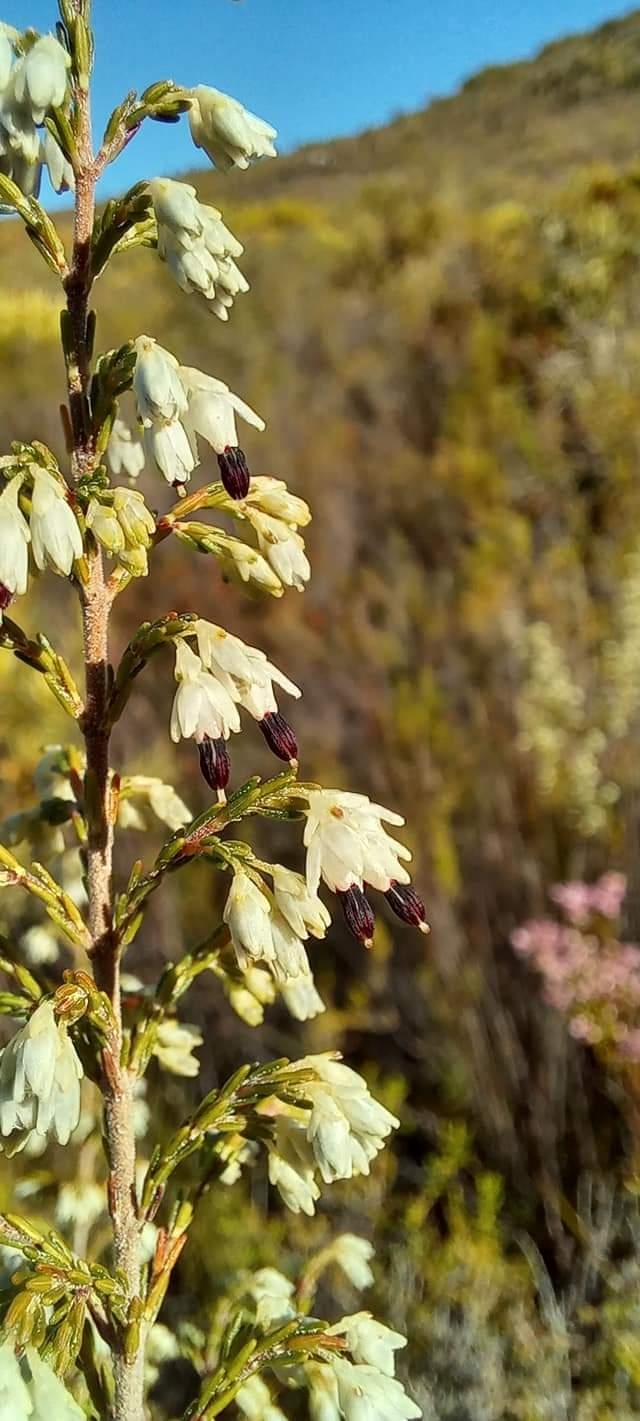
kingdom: Plantae
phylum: Tracheophyta
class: Magnoliopsida
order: Ericales
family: Ericaceae
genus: Erica
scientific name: Erica imbricata
